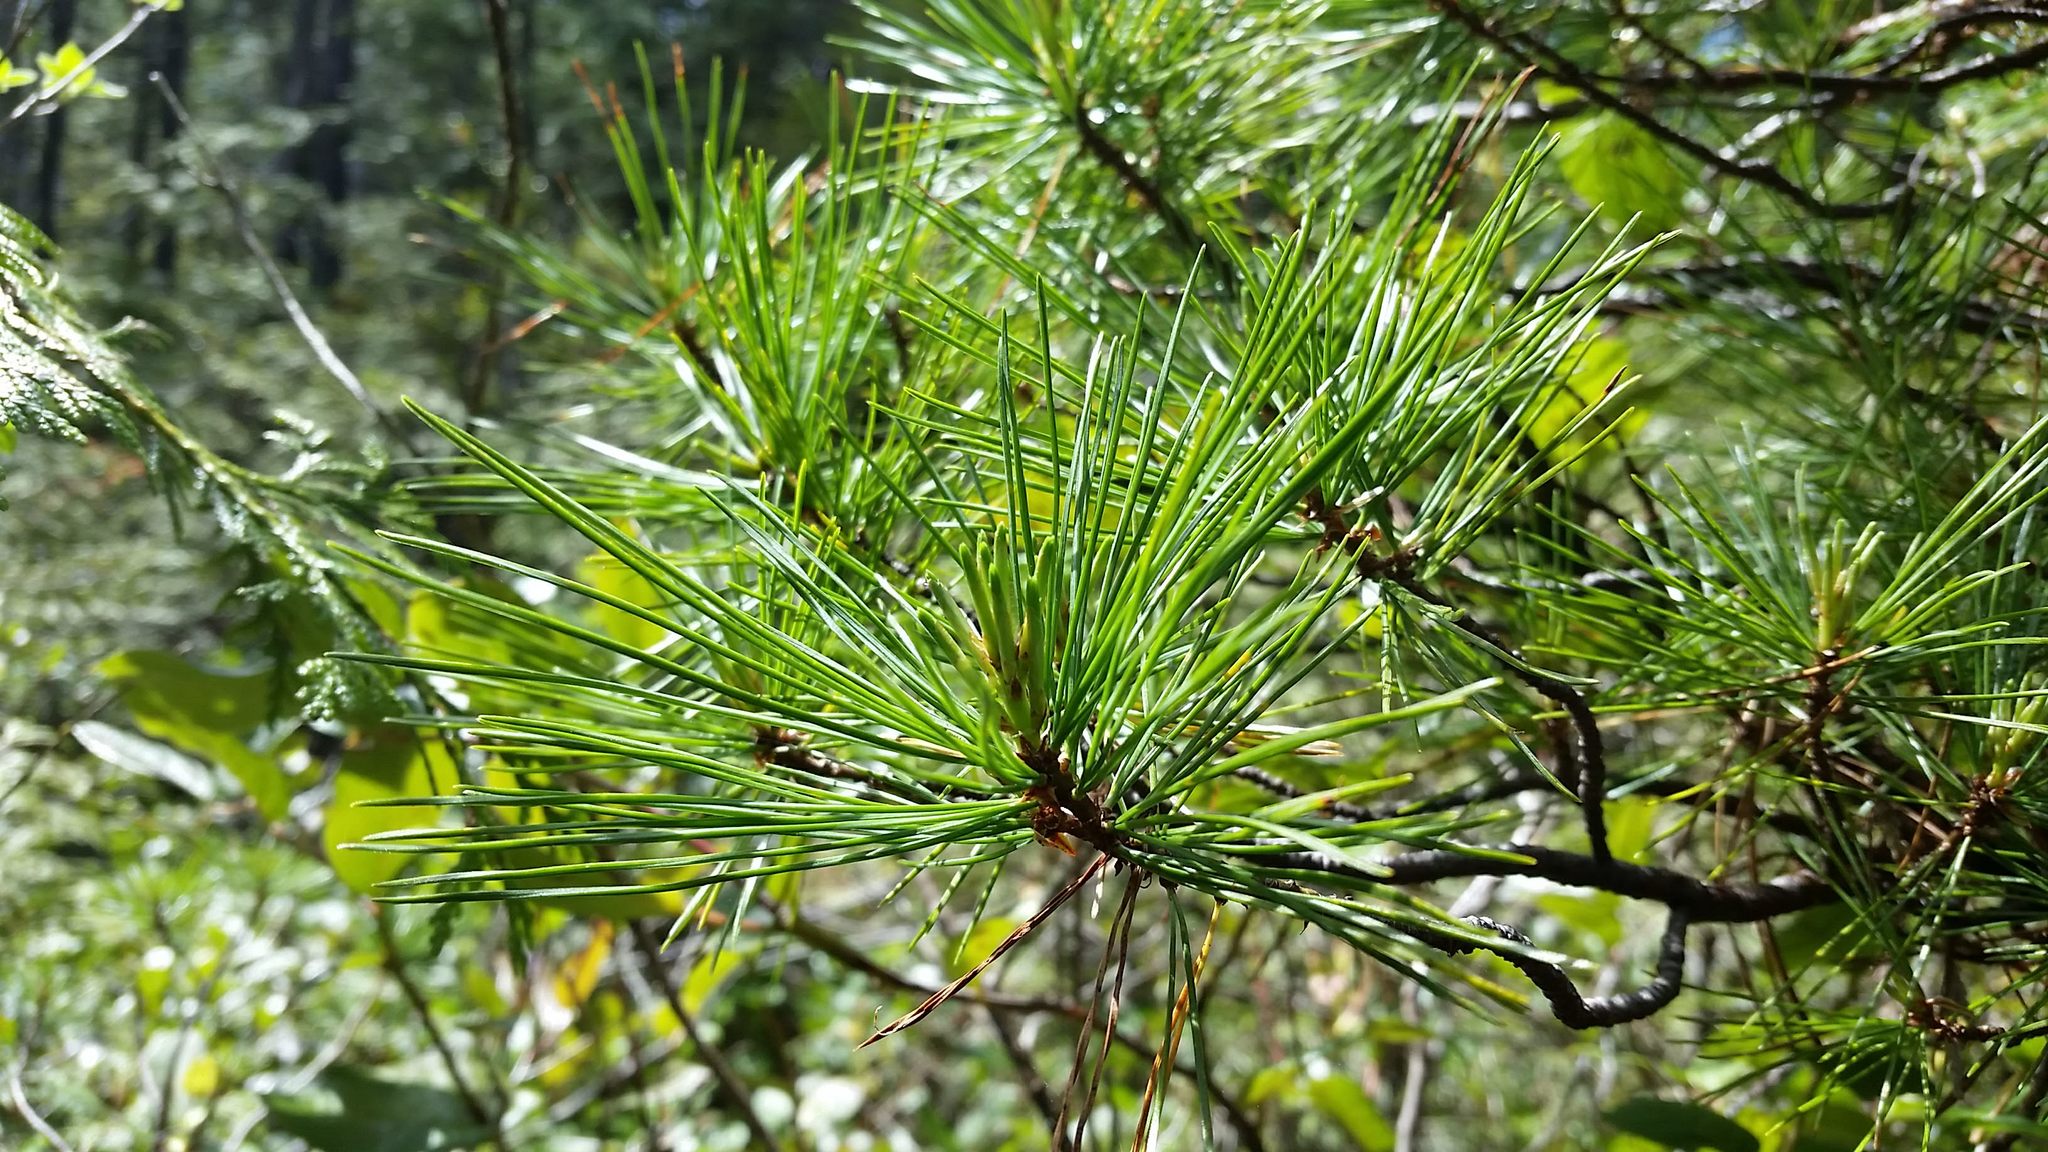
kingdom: Plantae
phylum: Tracheophyta
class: Pinopsida
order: Pinales
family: Pinaceae
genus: Pinus
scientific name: Pinus monticola
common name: Western white pine
